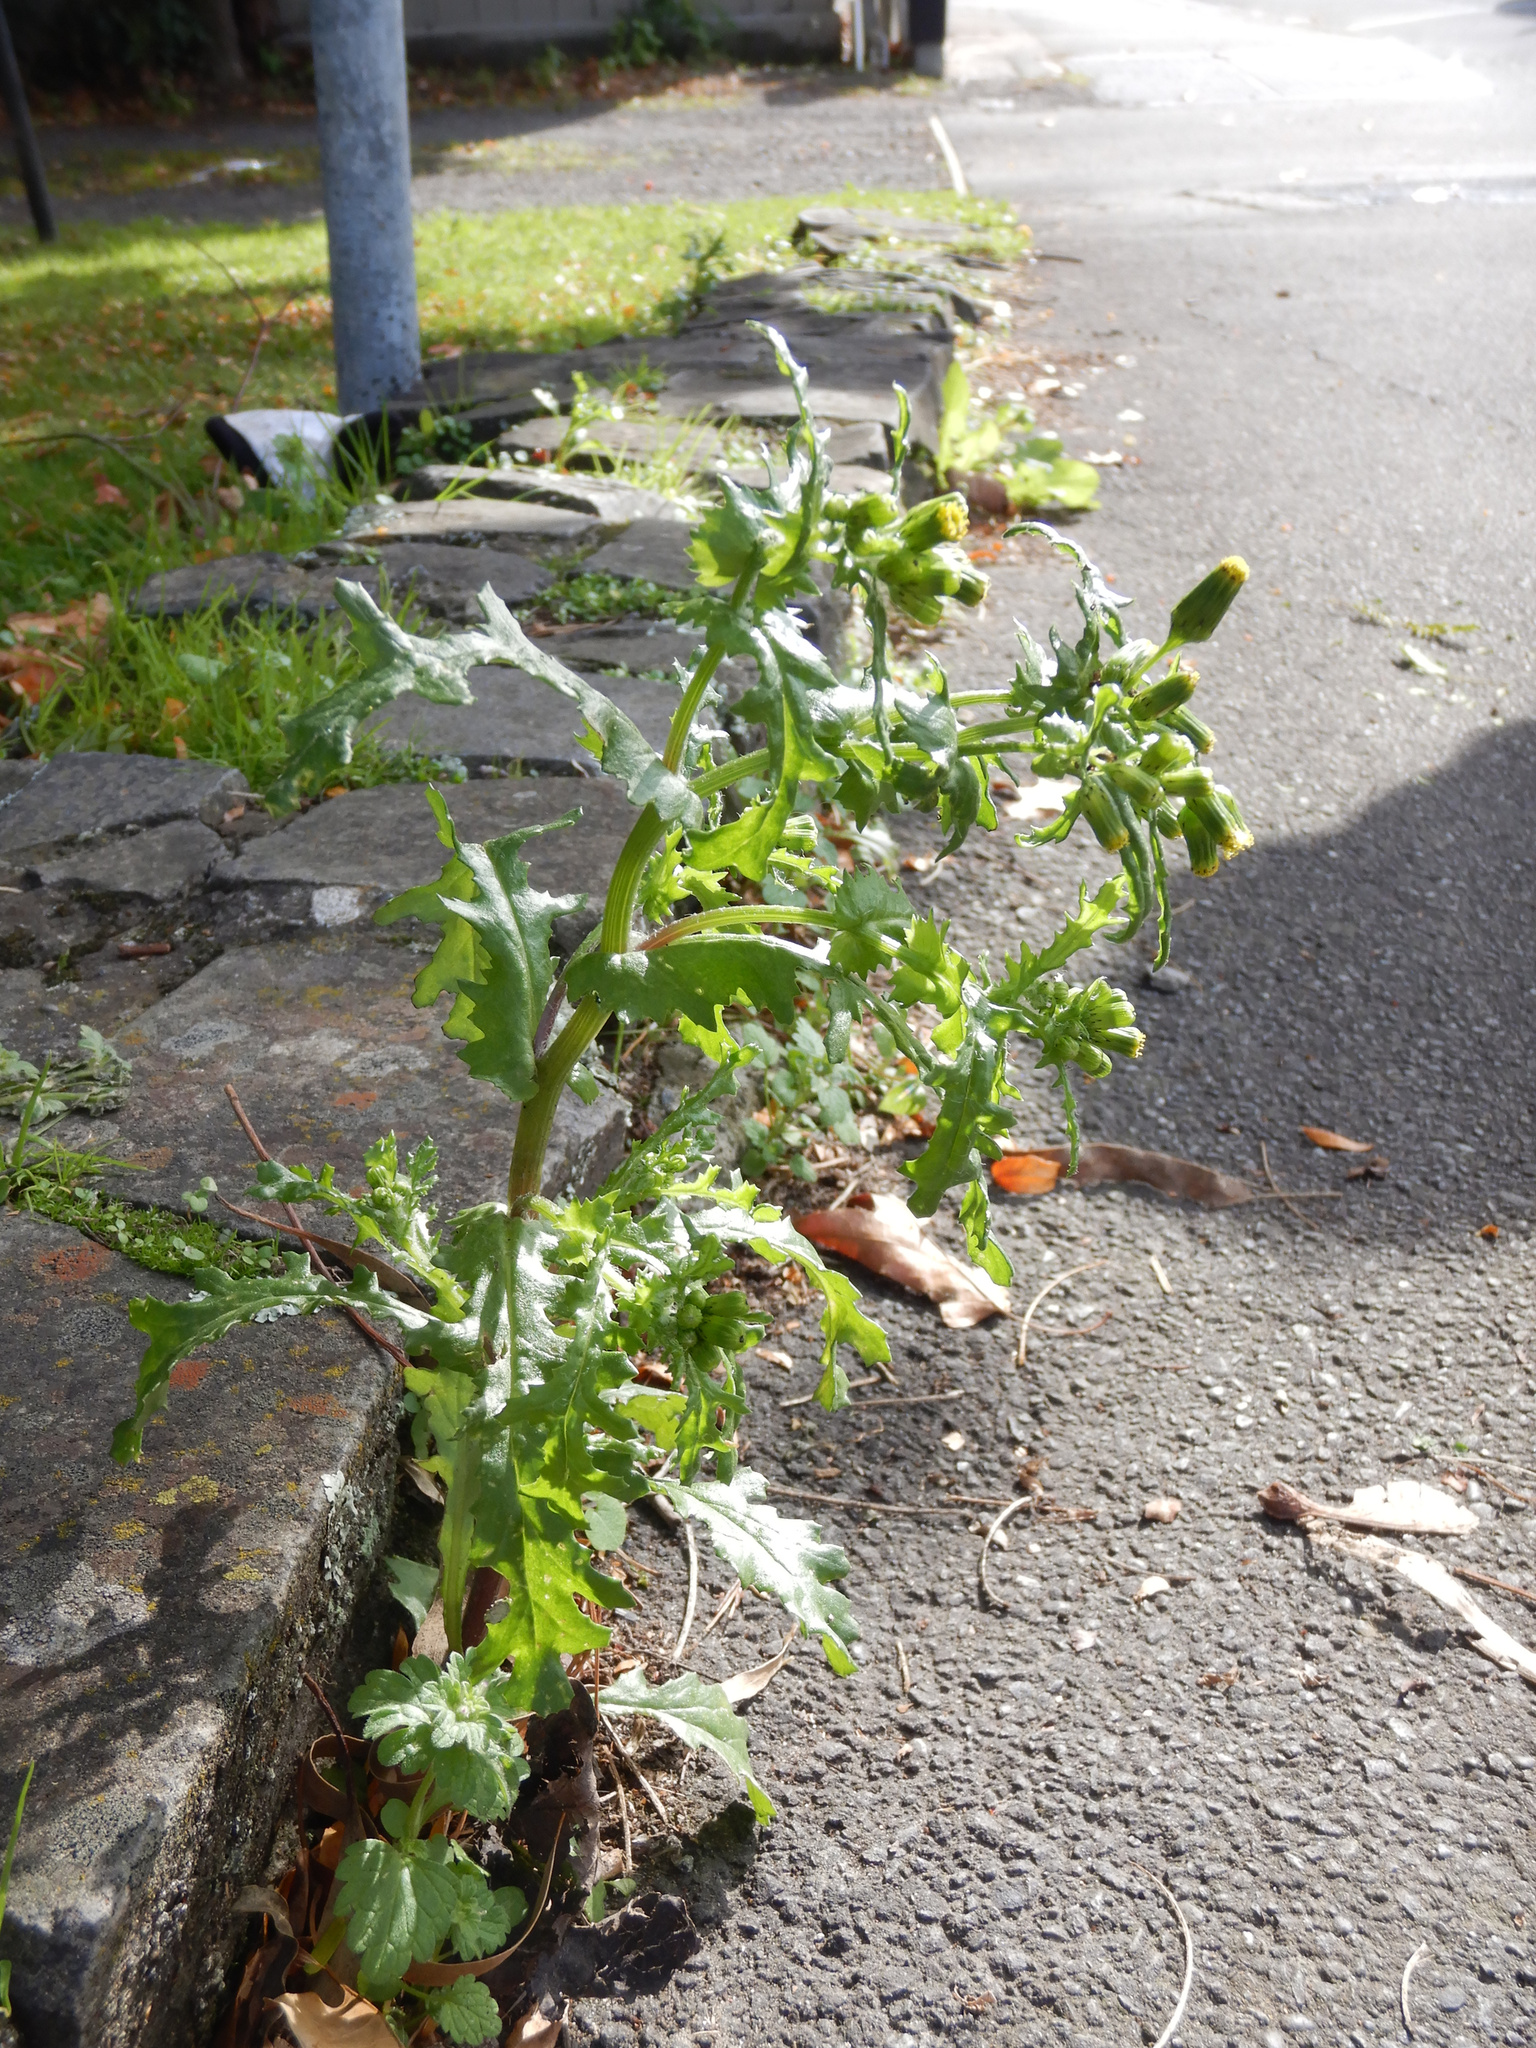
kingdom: Plantae
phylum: Tracheophyta
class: Magnoliopsida
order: Asterales
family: Asteraceae
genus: Senecio
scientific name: Senecio vulgaris
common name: Old-man-in-the-spring
